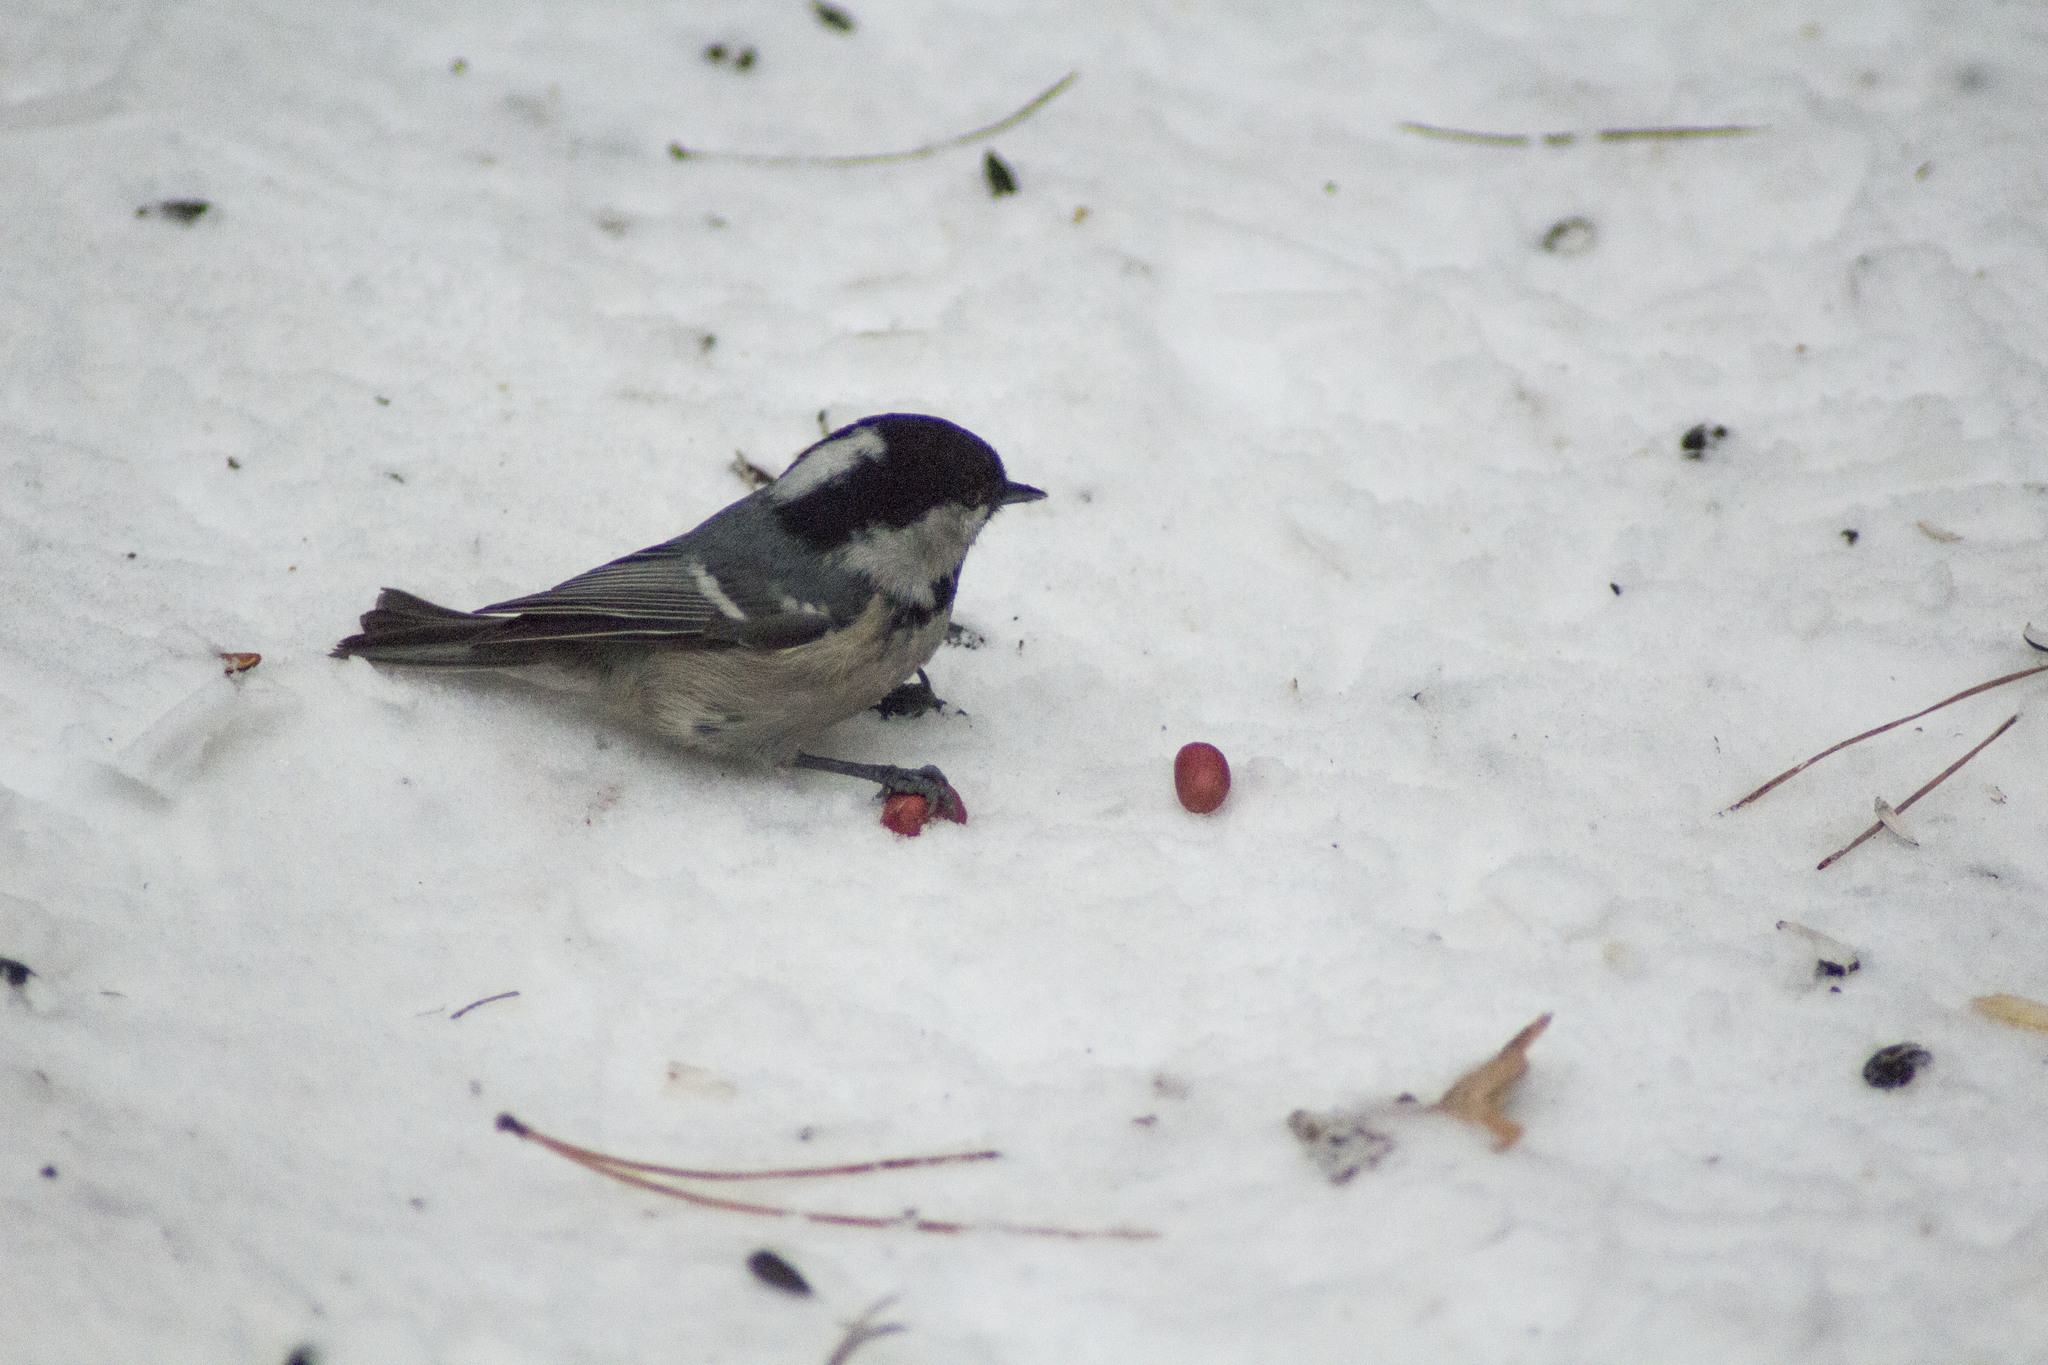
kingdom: Animalia
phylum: Chordata
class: Aves
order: Passeriformes
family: Paridae
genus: Periparus
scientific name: Periparus ater
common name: Coal tit
